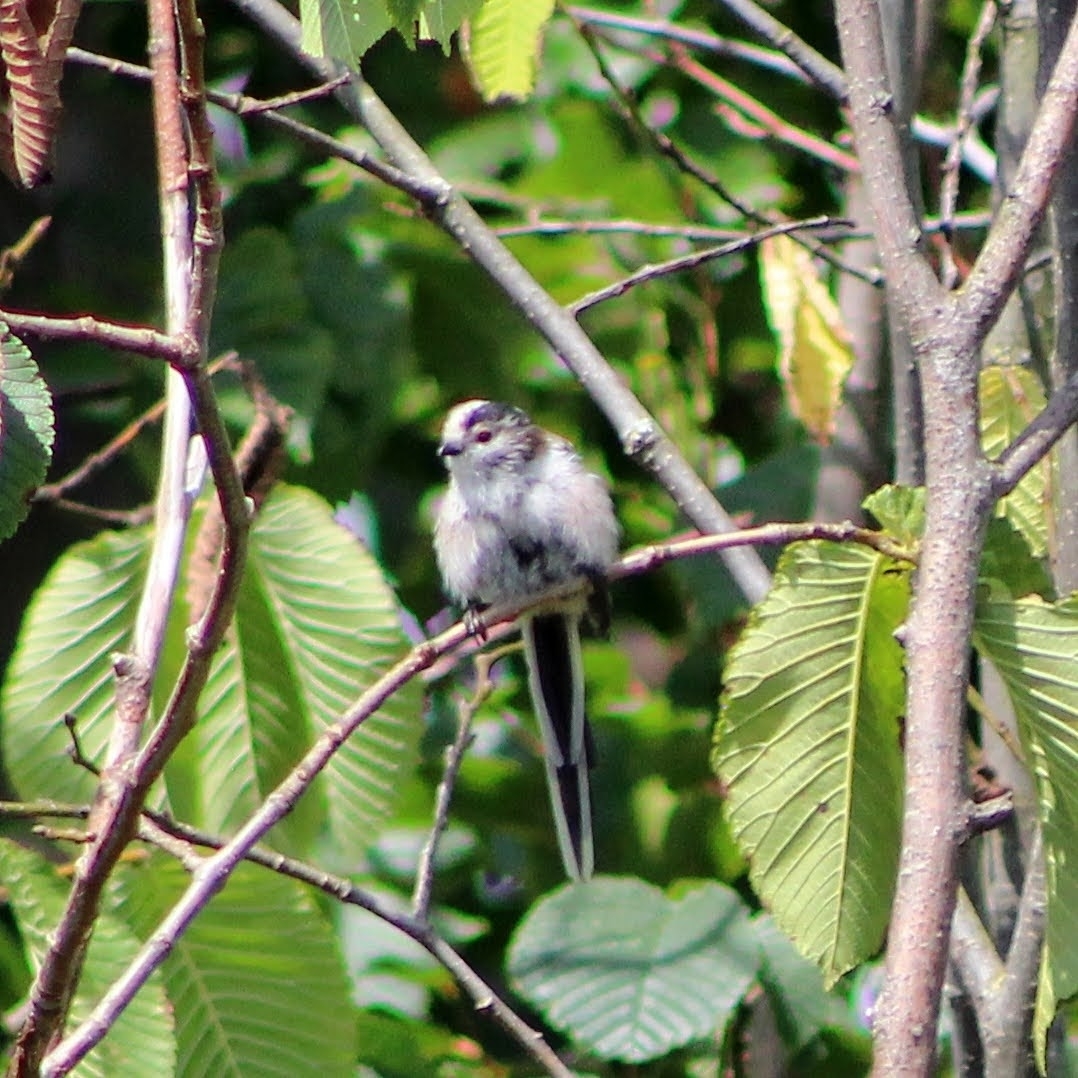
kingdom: Animalia
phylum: Chordata
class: Aves
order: Passeriformes
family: Aegithalidae
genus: Aegithalos
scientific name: Aegithalos caudatus
